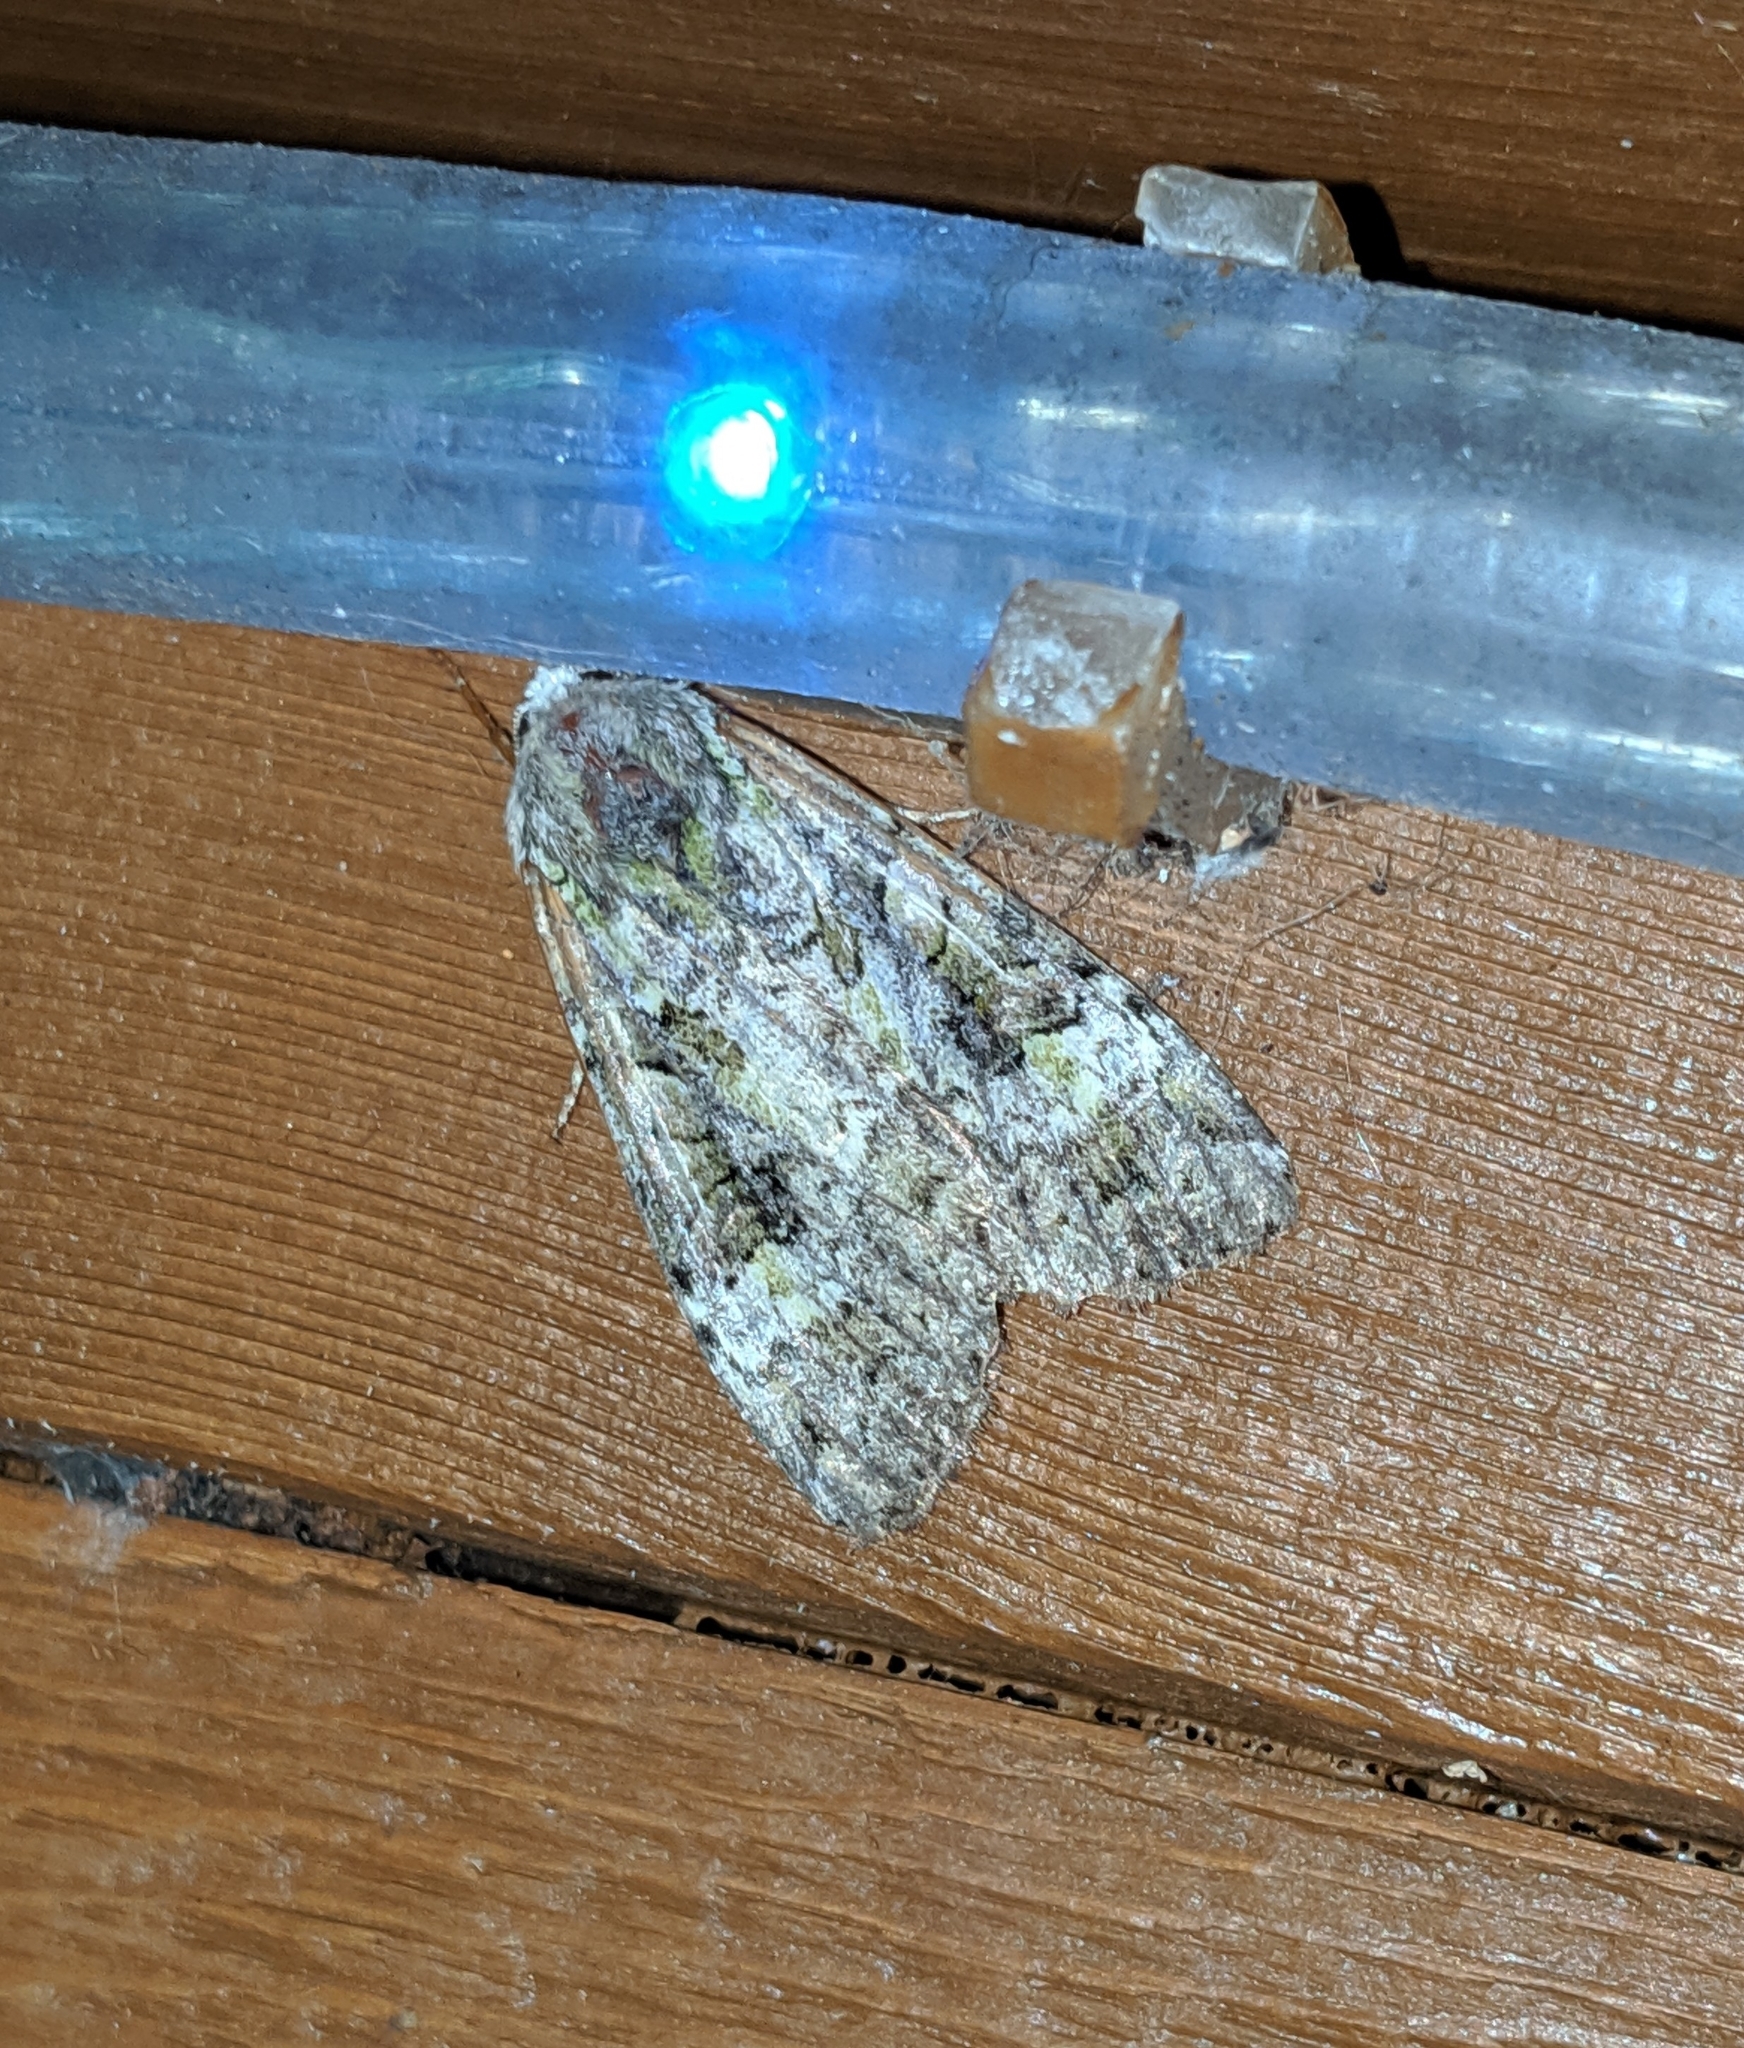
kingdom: Animalia
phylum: Arthropoda
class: Insecta
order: Lepidoptera
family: Noctuidae
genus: Anaplectoides
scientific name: Anaplectoides prasina
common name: Green arches
